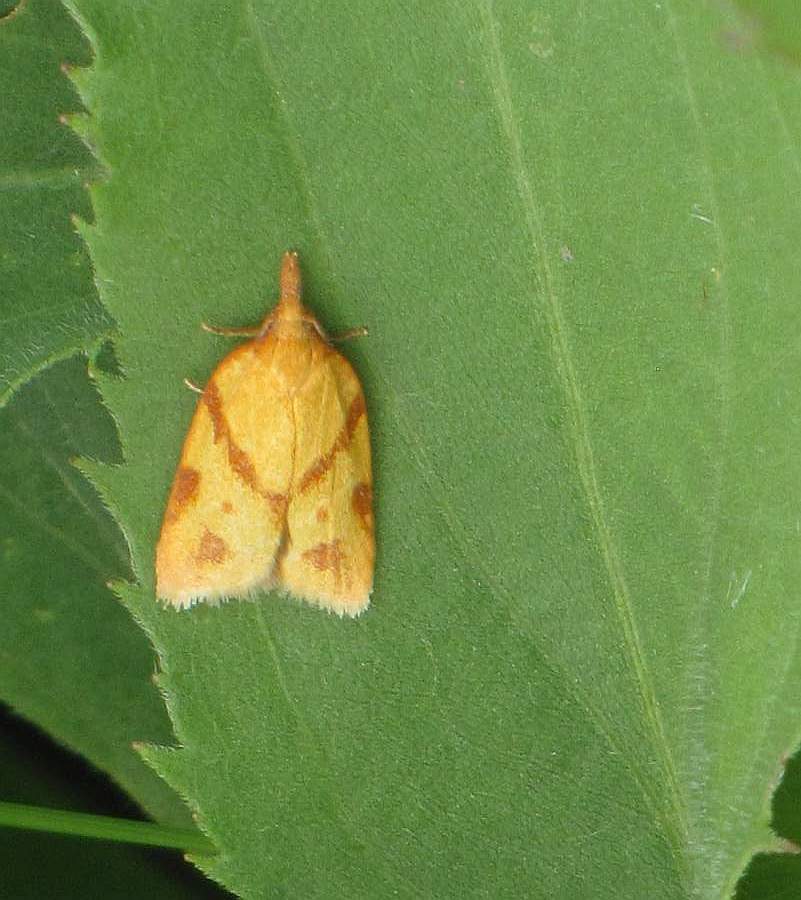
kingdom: Animalia
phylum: Arthropoda
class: Insecta
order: Lepidoptera
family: Tortricidae
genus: Sparganothis
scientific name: Sparganothis unifasciana
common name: One-lined sparganothis moth
